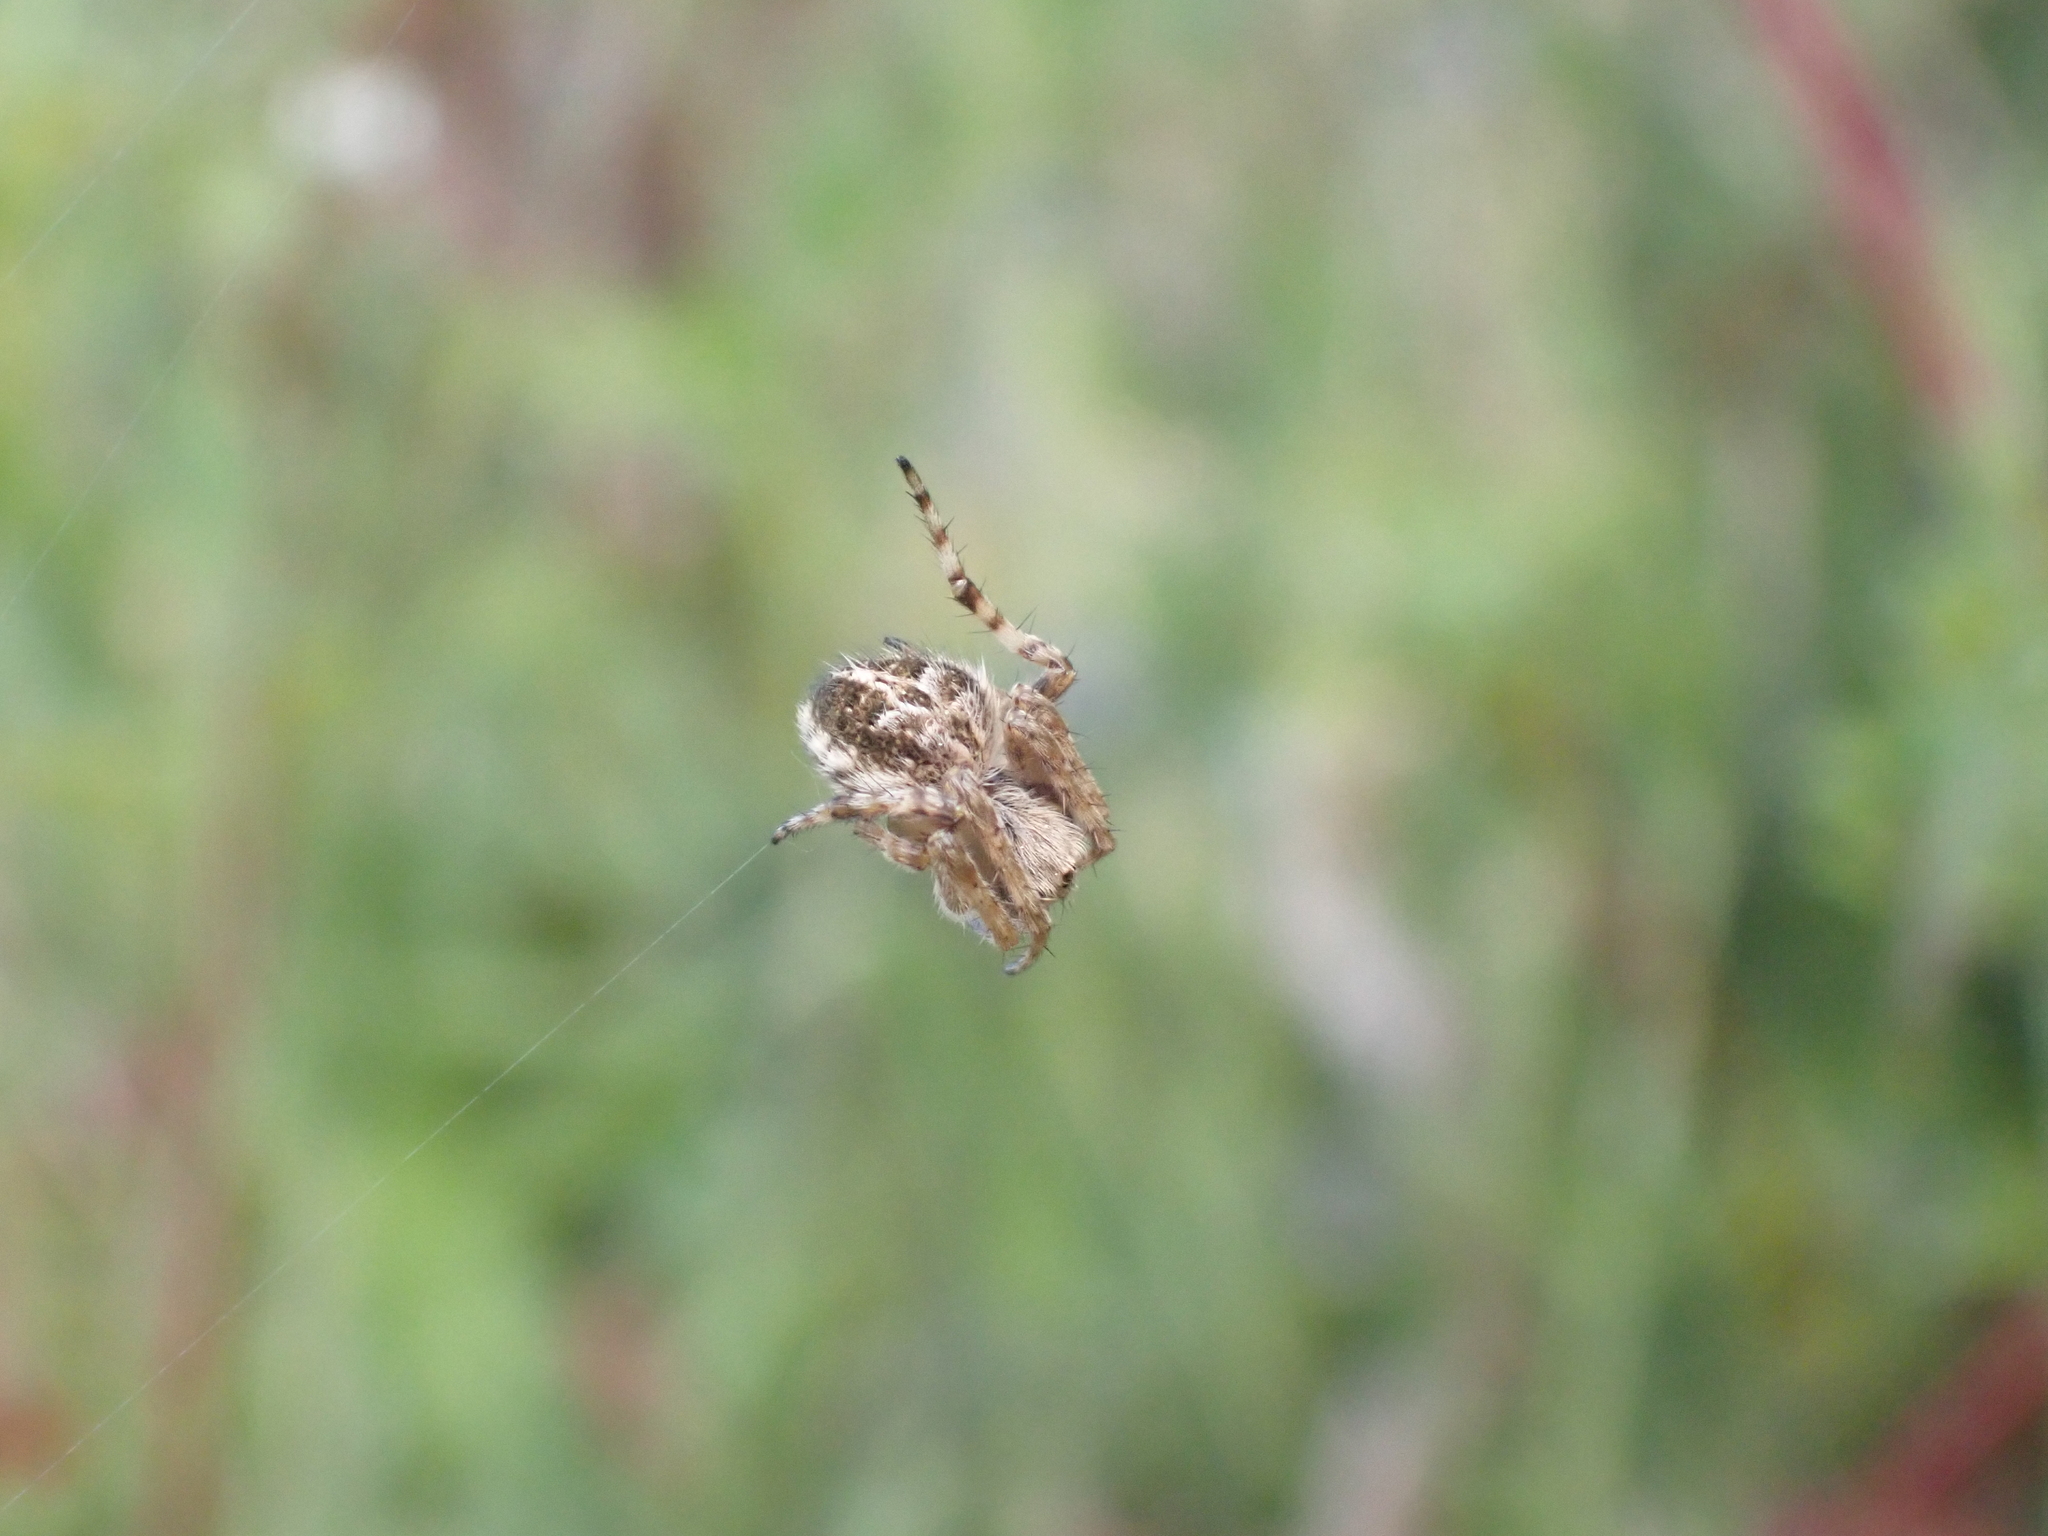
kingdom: Animalia
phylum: Arthropoda
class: Arachnida
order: Araneae
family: Araneidae
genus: Agalenatea
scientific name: Agalenatea redii
